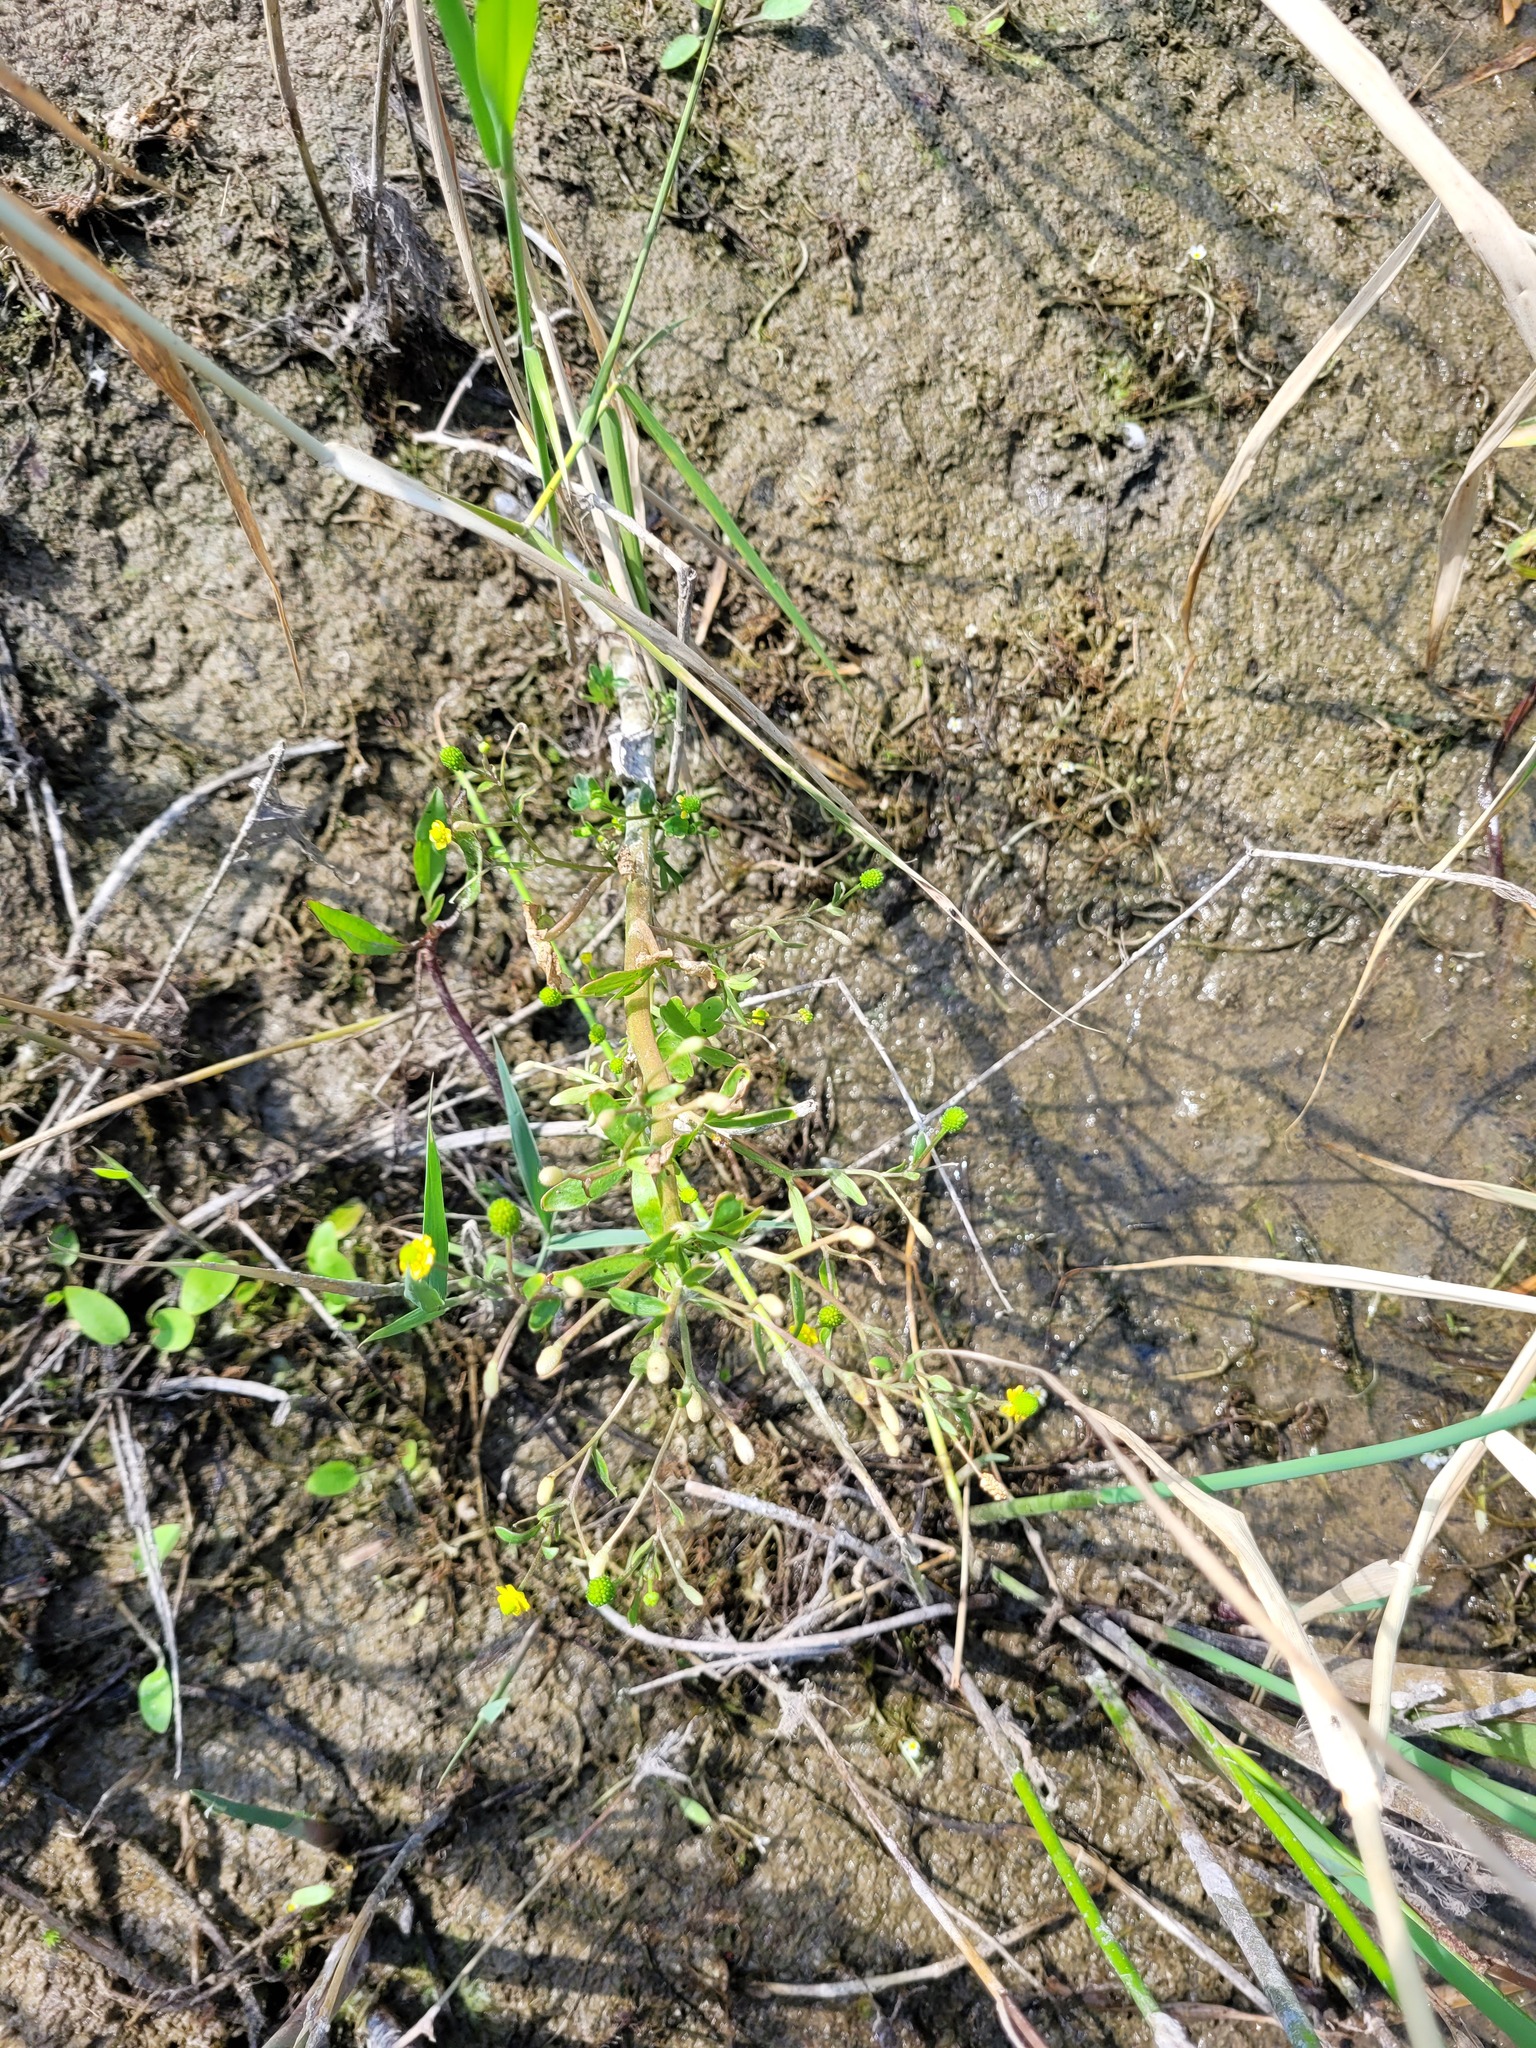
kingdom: Plantae
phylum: Tracheophyta
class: Magnoliopsida
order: Ranunculales
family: Ranunculaceae
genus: Ranunculus
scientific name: Ranunculus sceleratus
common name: Celery-leaved buttercup
